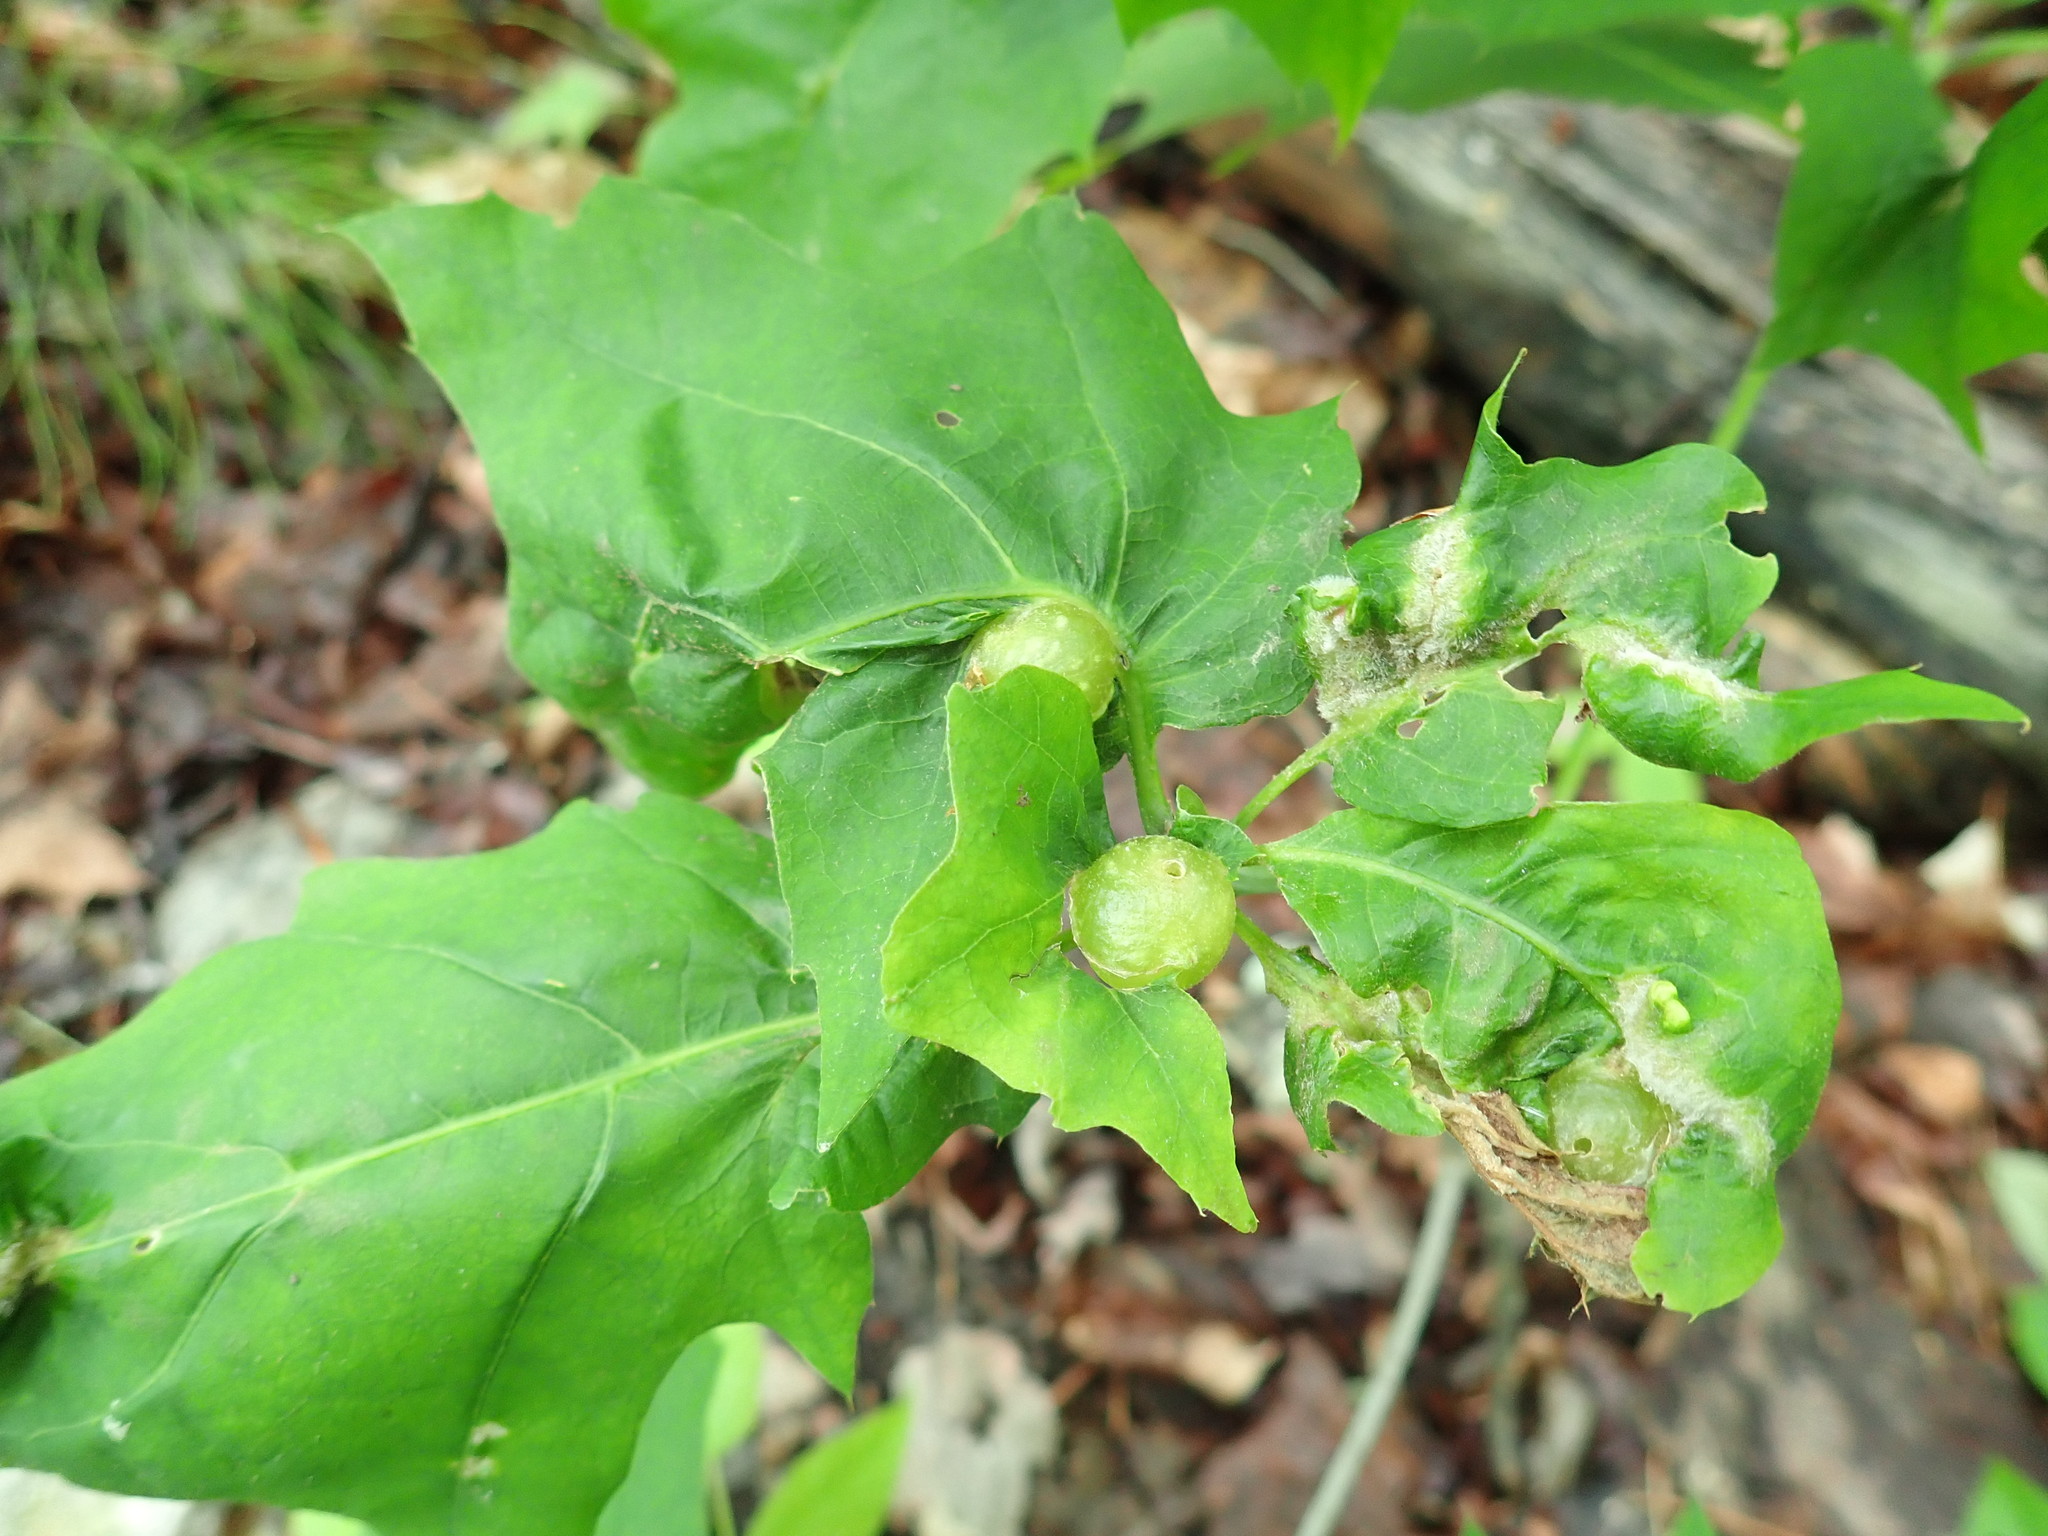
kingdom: Animalia
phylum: Arthropoda
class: Insecta
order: Hymenoptera
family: Cynipidae
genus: Dryocosmus
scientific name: Dryocosmus quercuspalustris
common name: Succulent oak gall wasp
